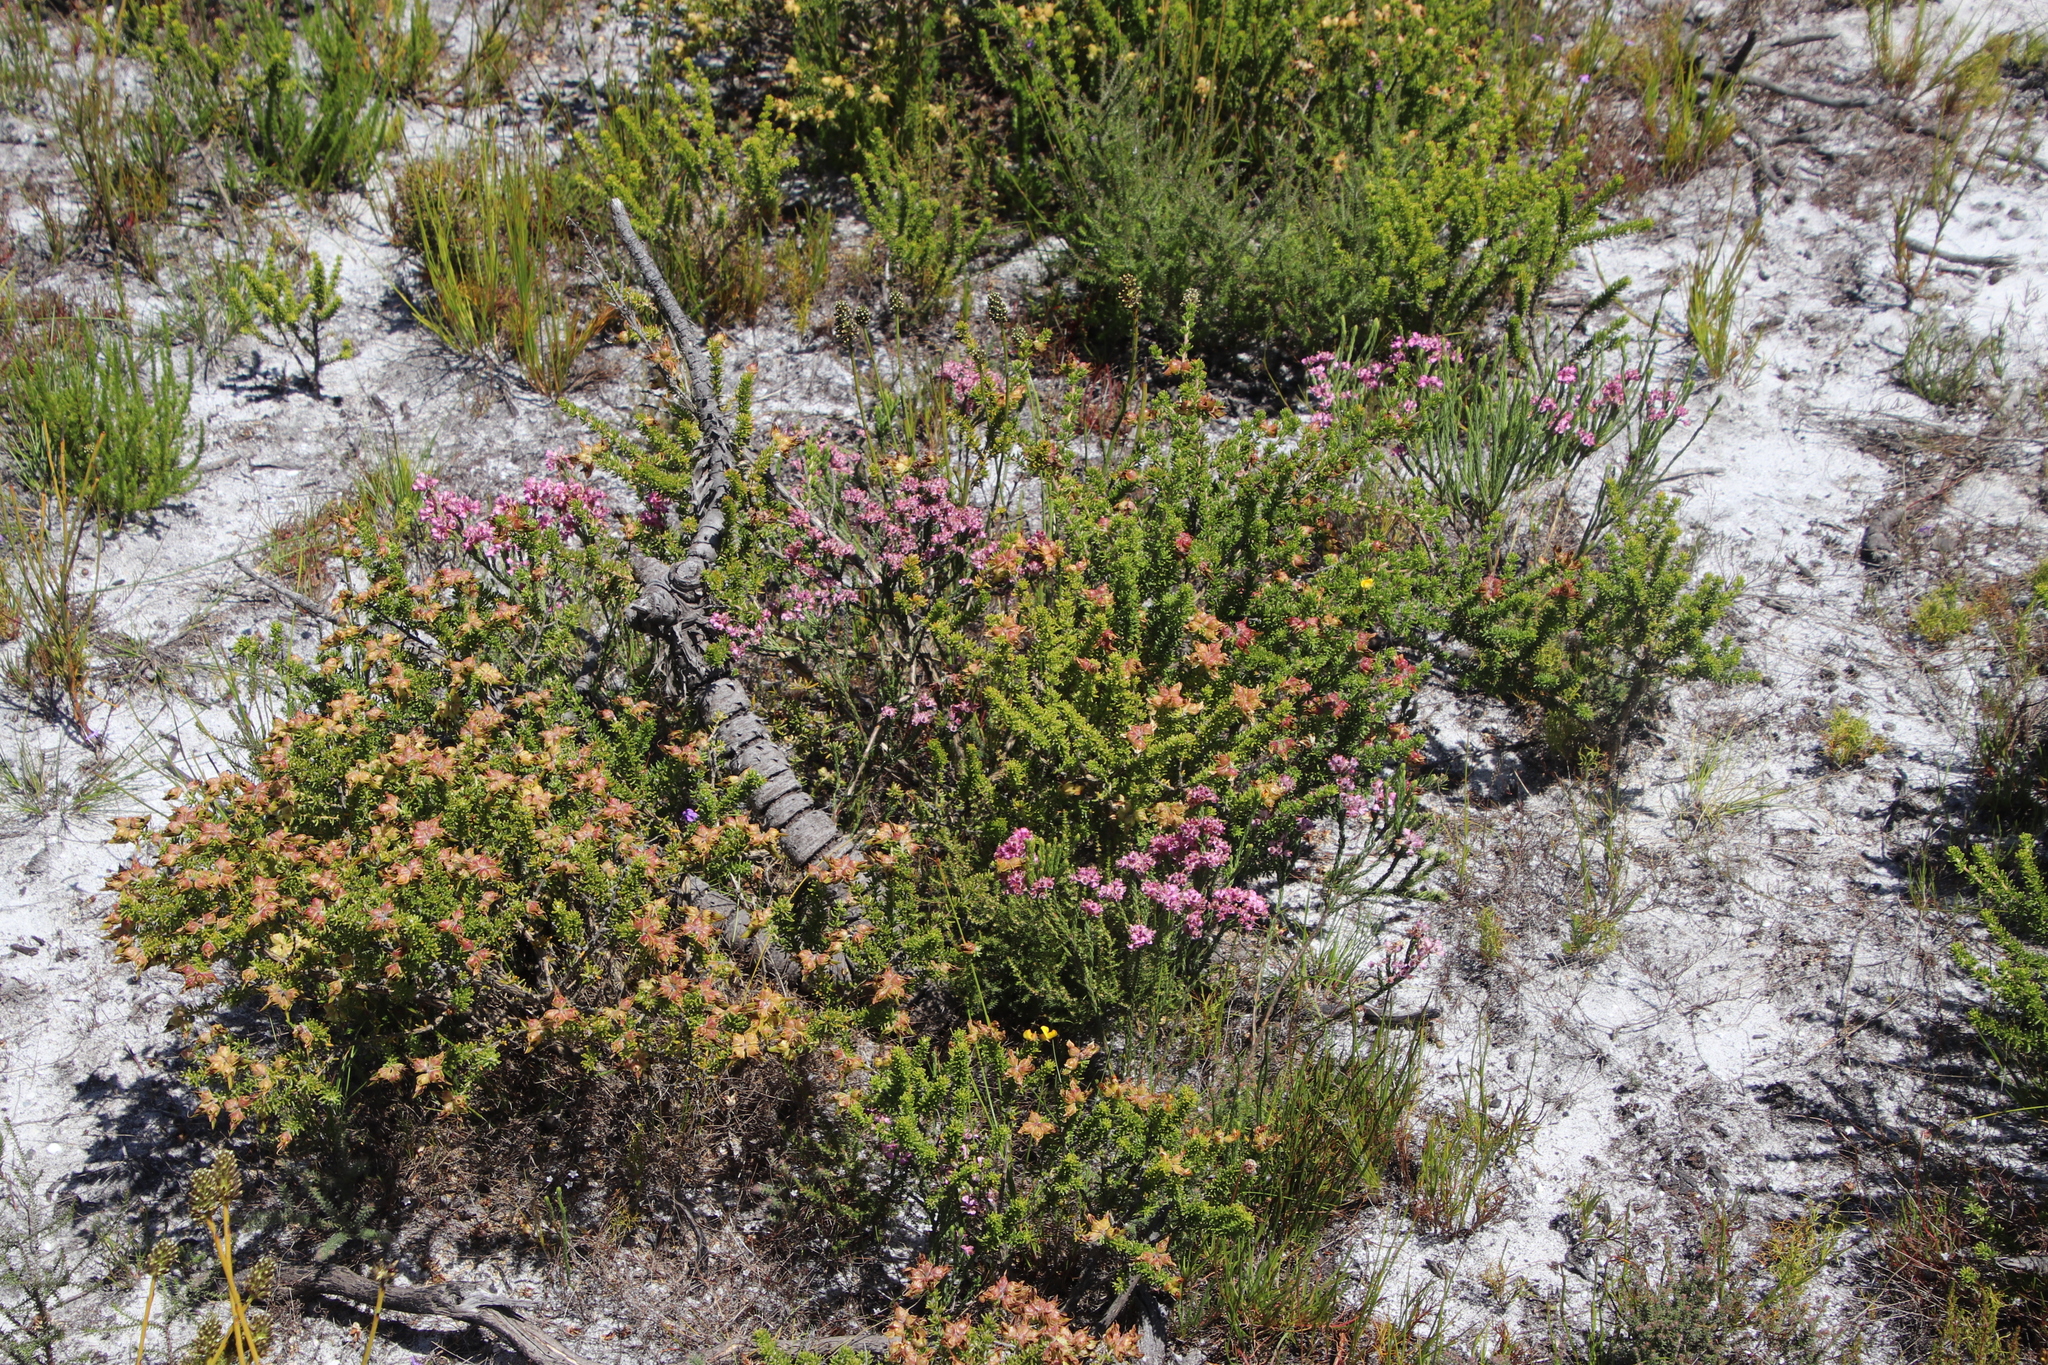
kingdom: Plantae
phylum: Tracheophyta
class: Magnoliopsida
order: Ericales
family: Ericaceae
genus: Erica
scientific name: Erica corifolia
